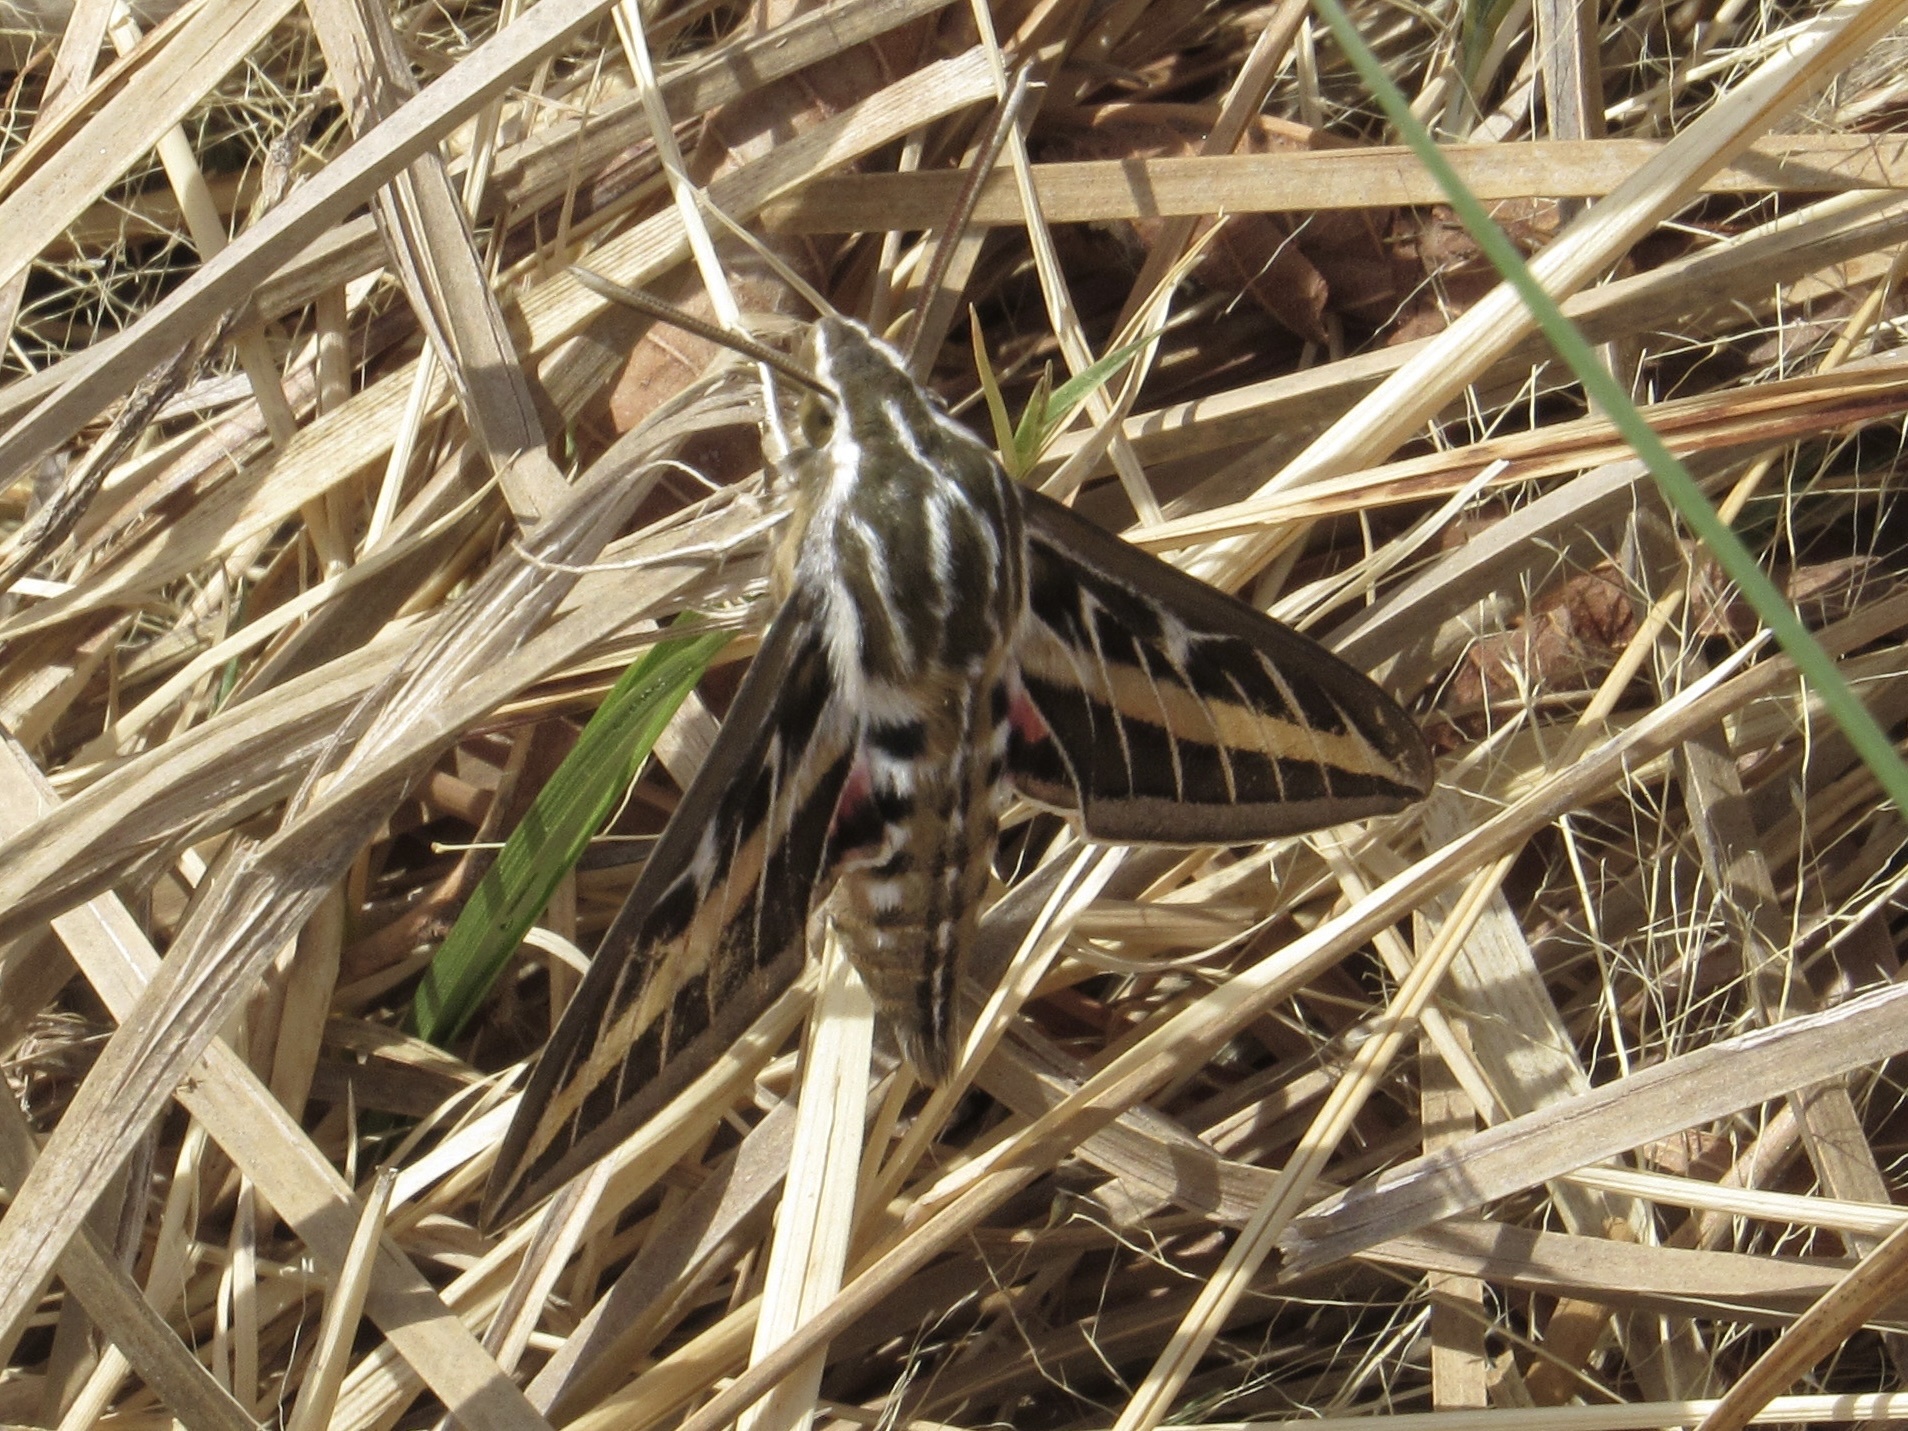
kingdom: Animalia
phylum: Arthropoda
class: Insecta
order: Lepidoptera
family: Sphingidae
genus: Hyles
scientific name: Hyles lineata
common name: White-lined sphinx
